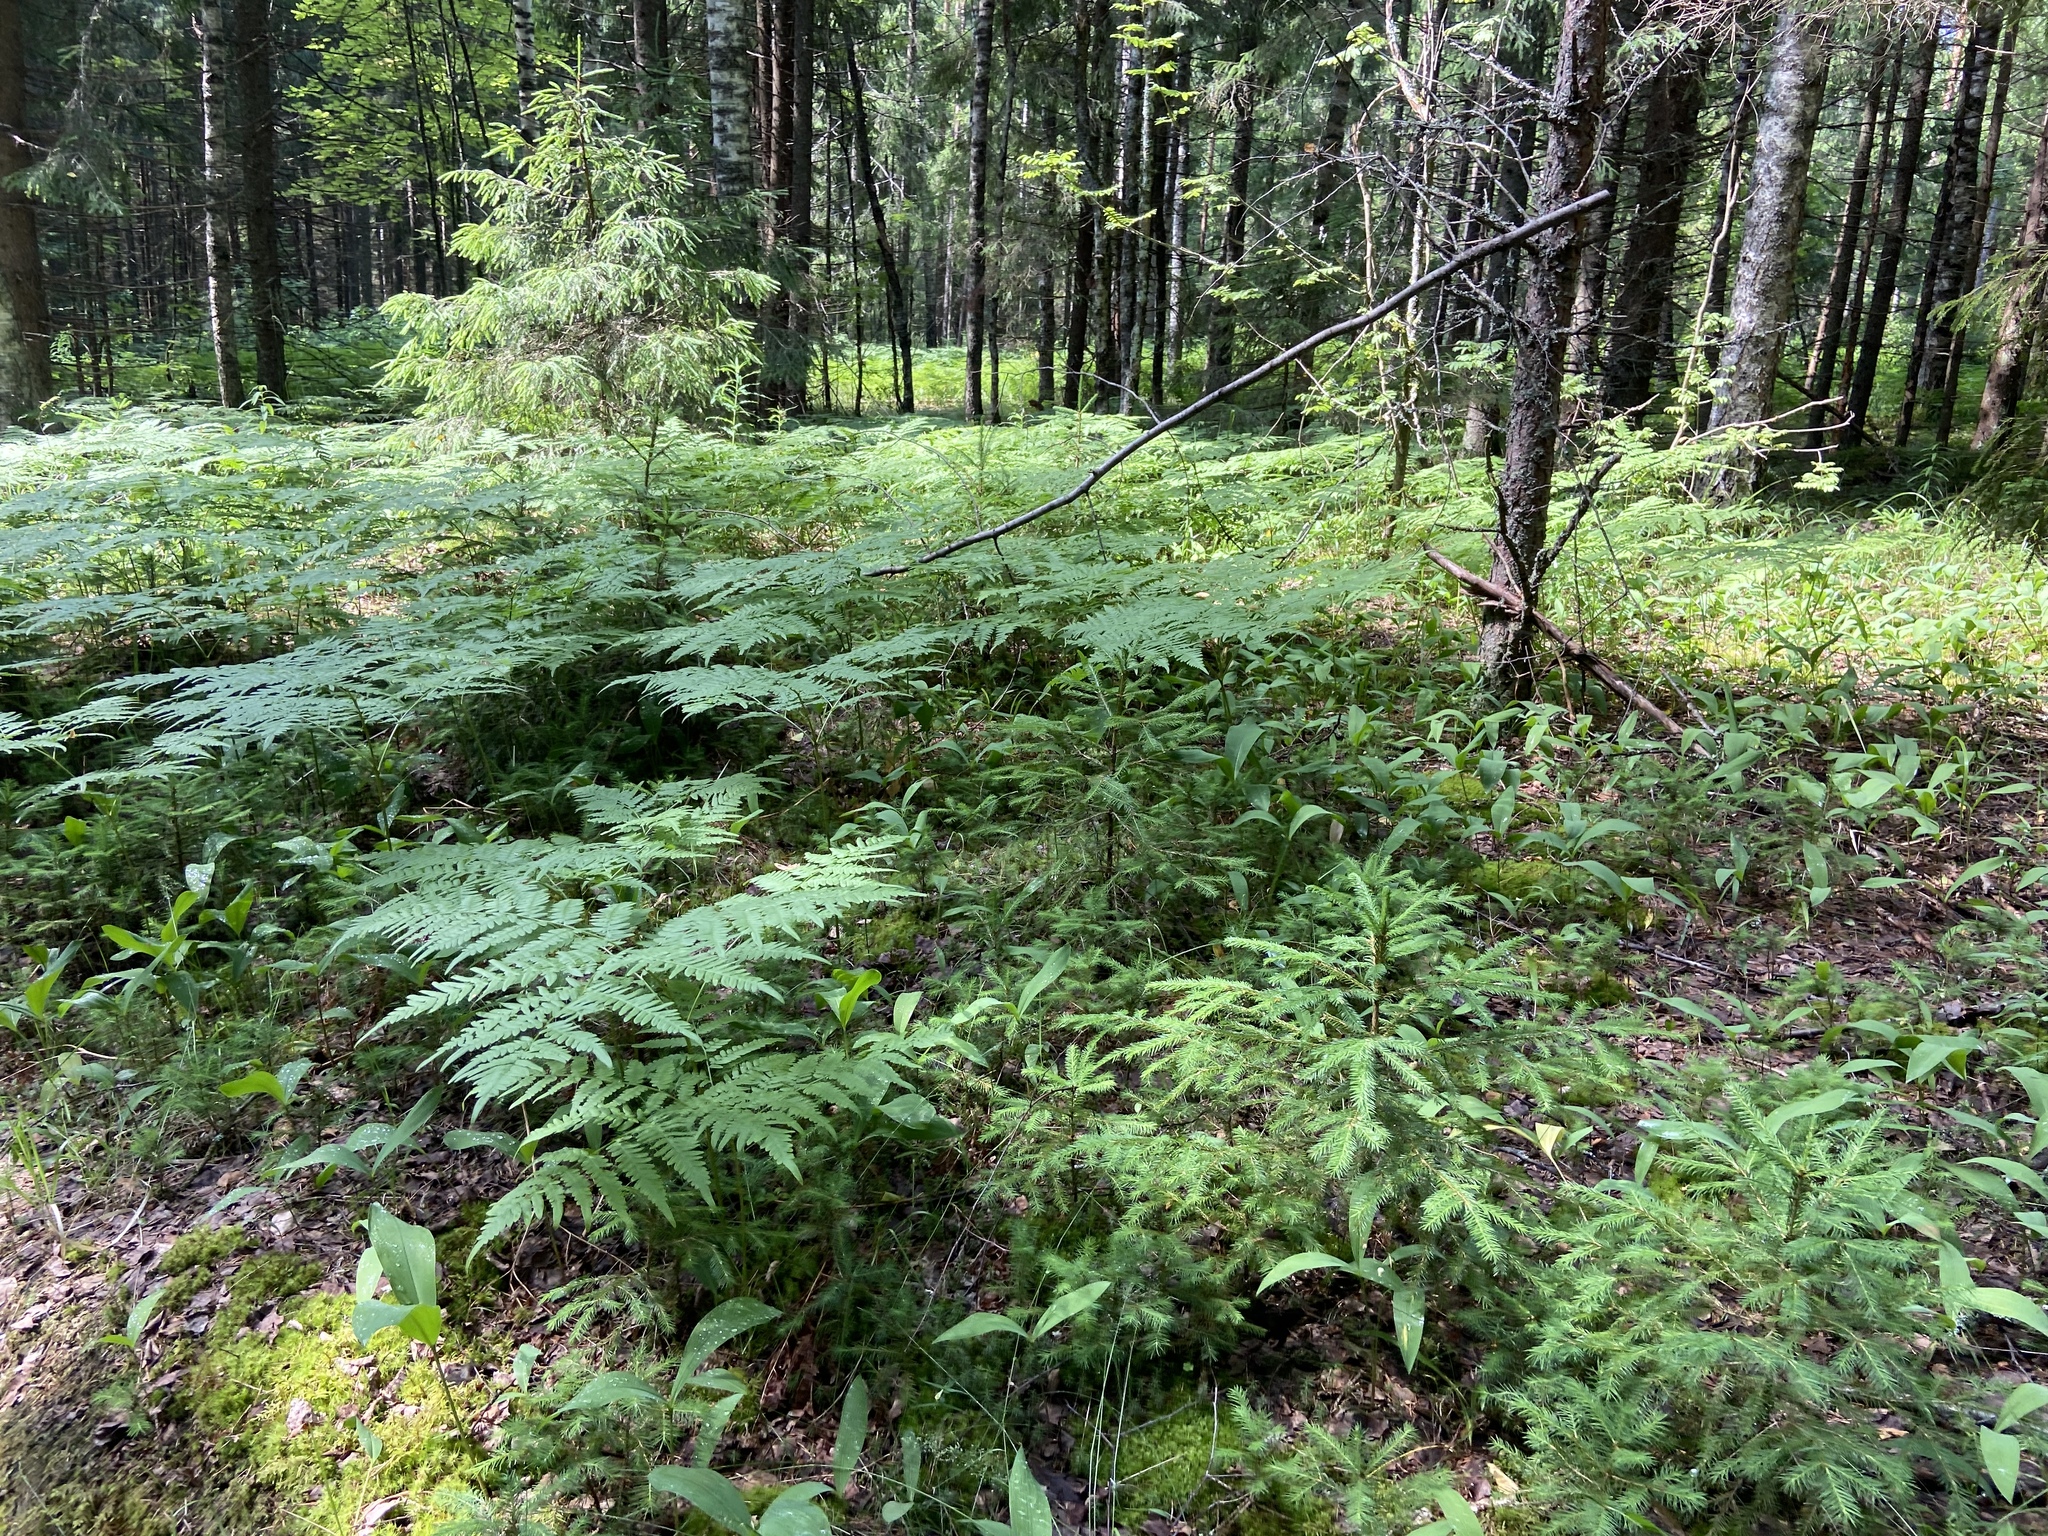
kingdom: Plantae
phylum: Tracheophyta
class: Polypodiopsida
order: Polypodiales
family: Dennstaedtiaceae
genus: Pteridium
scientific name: Pteridium aquilinum
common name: Bracken
